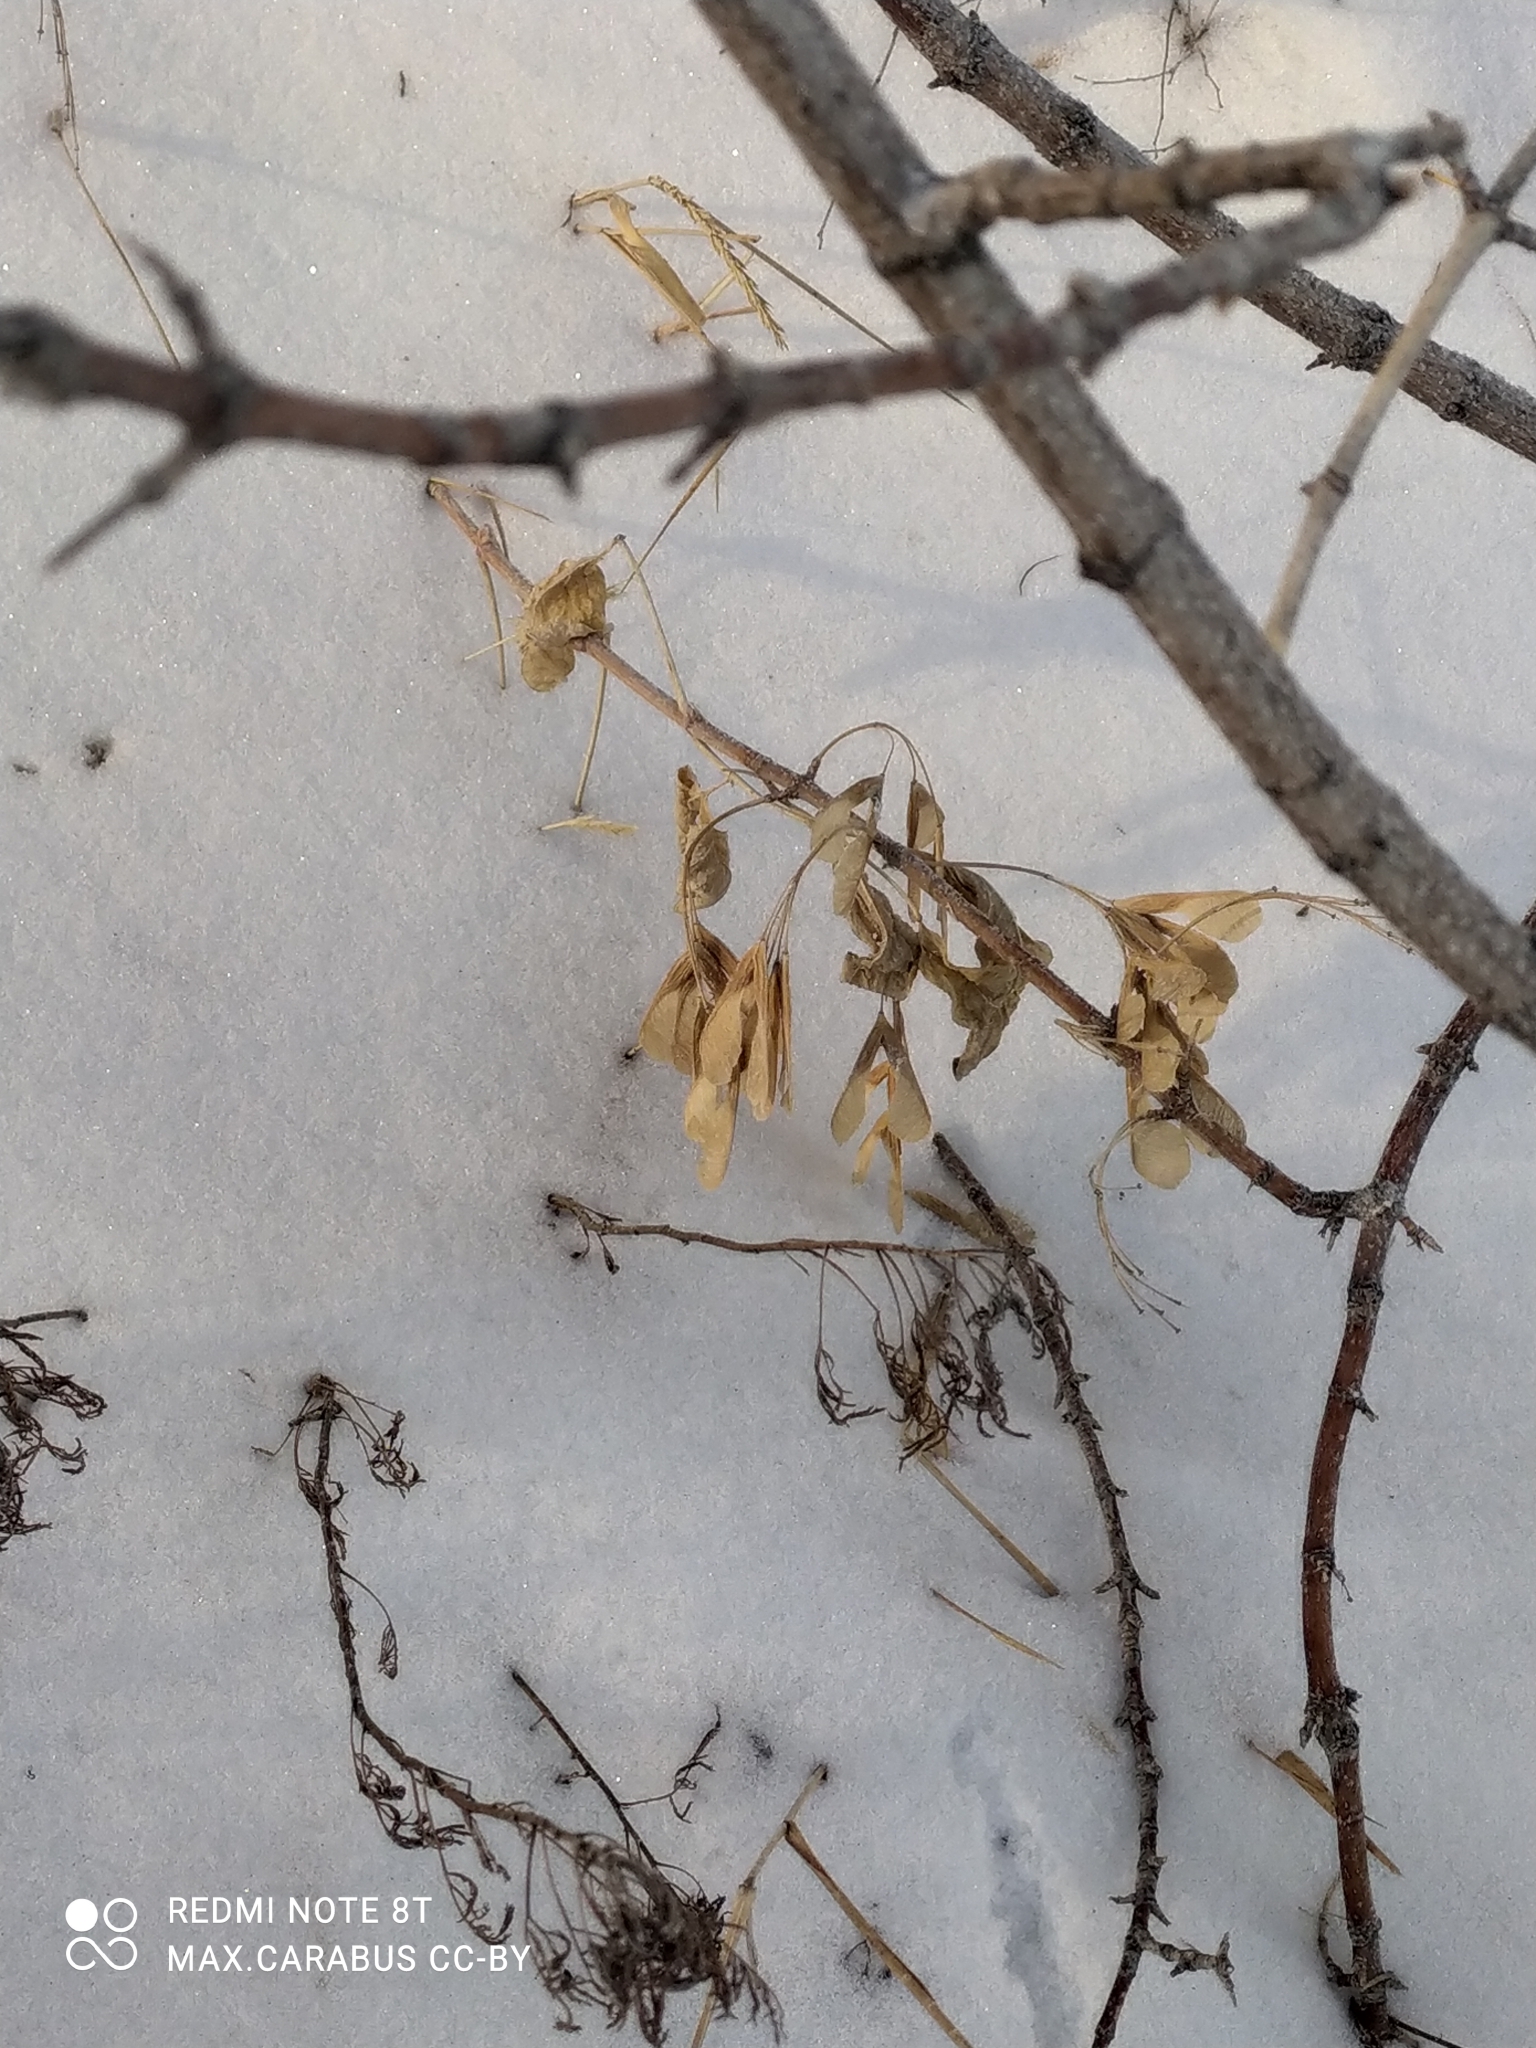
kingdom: Plantae
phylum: Tracheophyta
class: Magnoliopsida
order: Sapindales
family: Sapindaceae
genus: Acer
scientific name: Acer negundo
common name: Ashleaf maple
